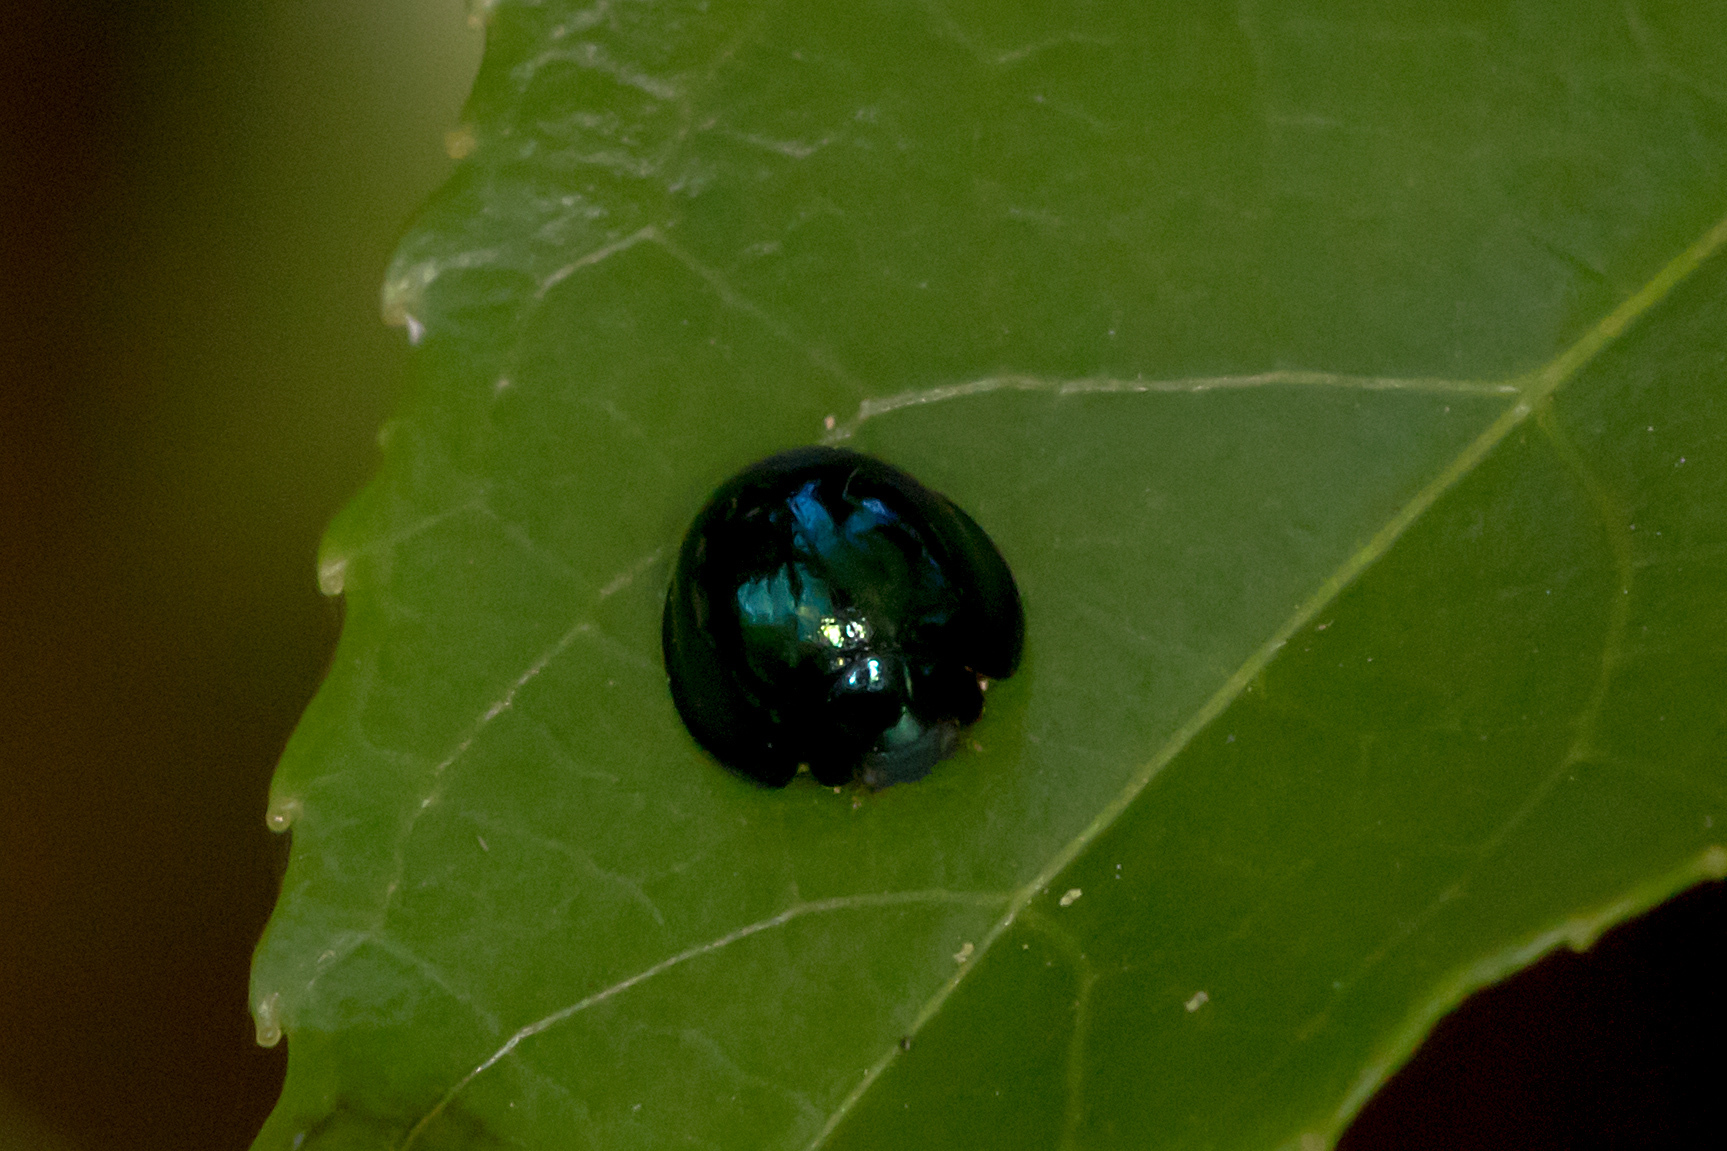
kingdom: Animalia
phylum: Arthropoda
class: Insecta
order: Coleoptera
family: Coccinellidae
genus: Halmus
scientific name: Halmus chalybeus
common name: Steel blue ladybird beetle
